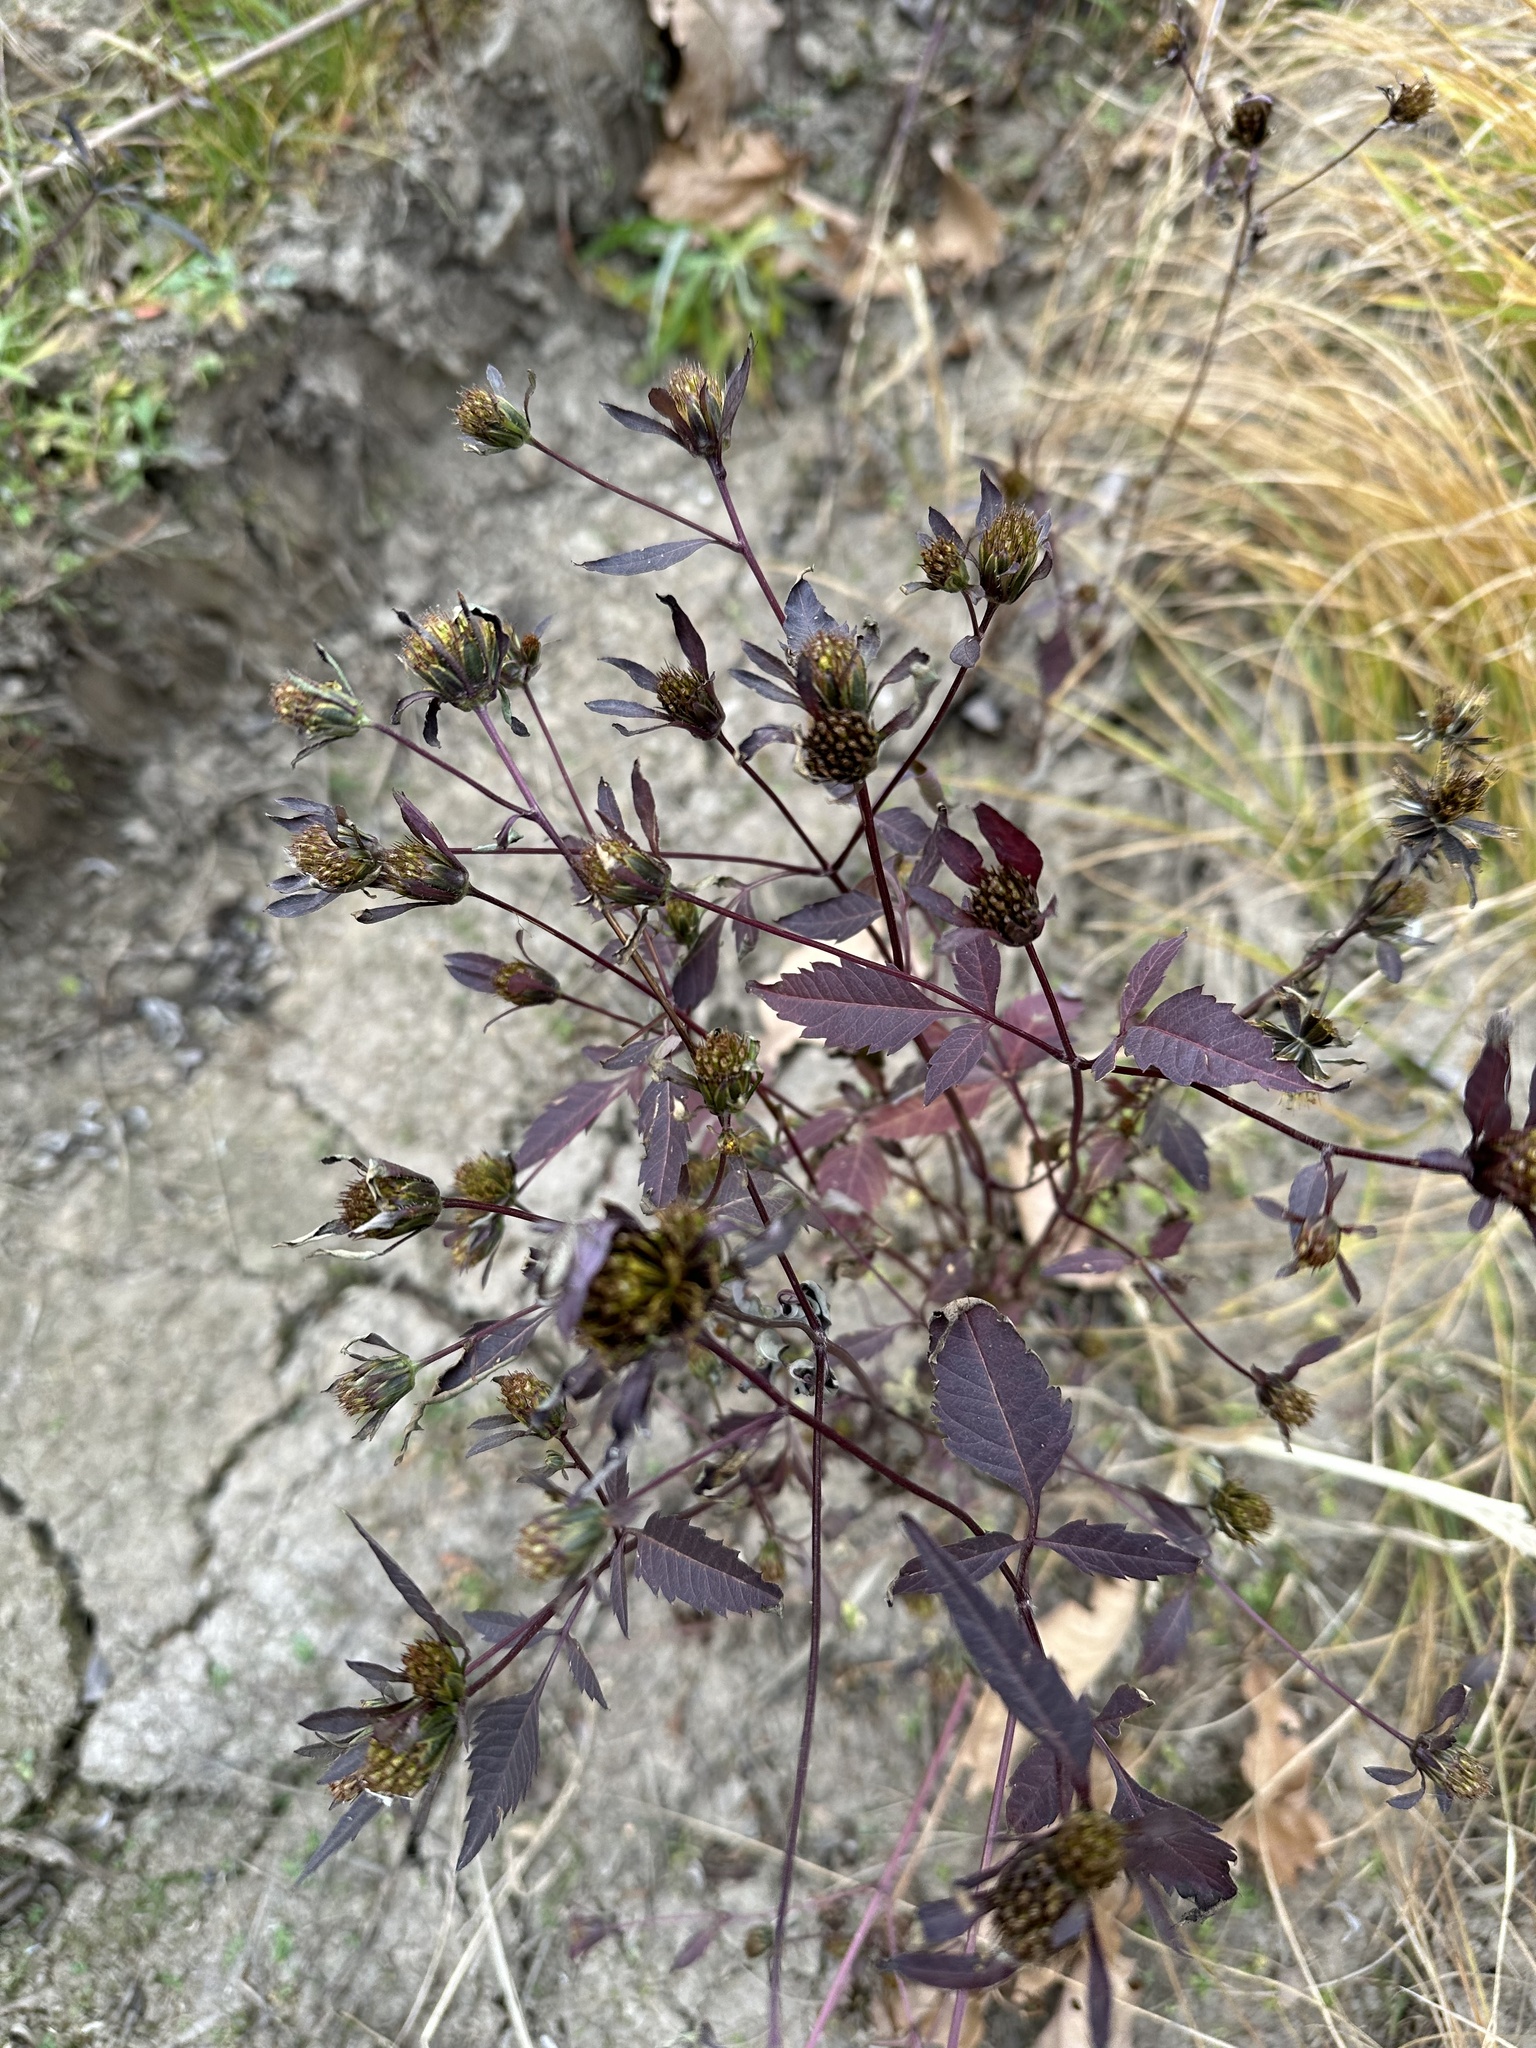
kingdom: Plantae
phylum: Tracheophyta
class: Magnoliopsida
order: Asterales
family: Asteraceae
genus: Bidens
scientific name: Bidens frondosa
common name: Beggarticks
